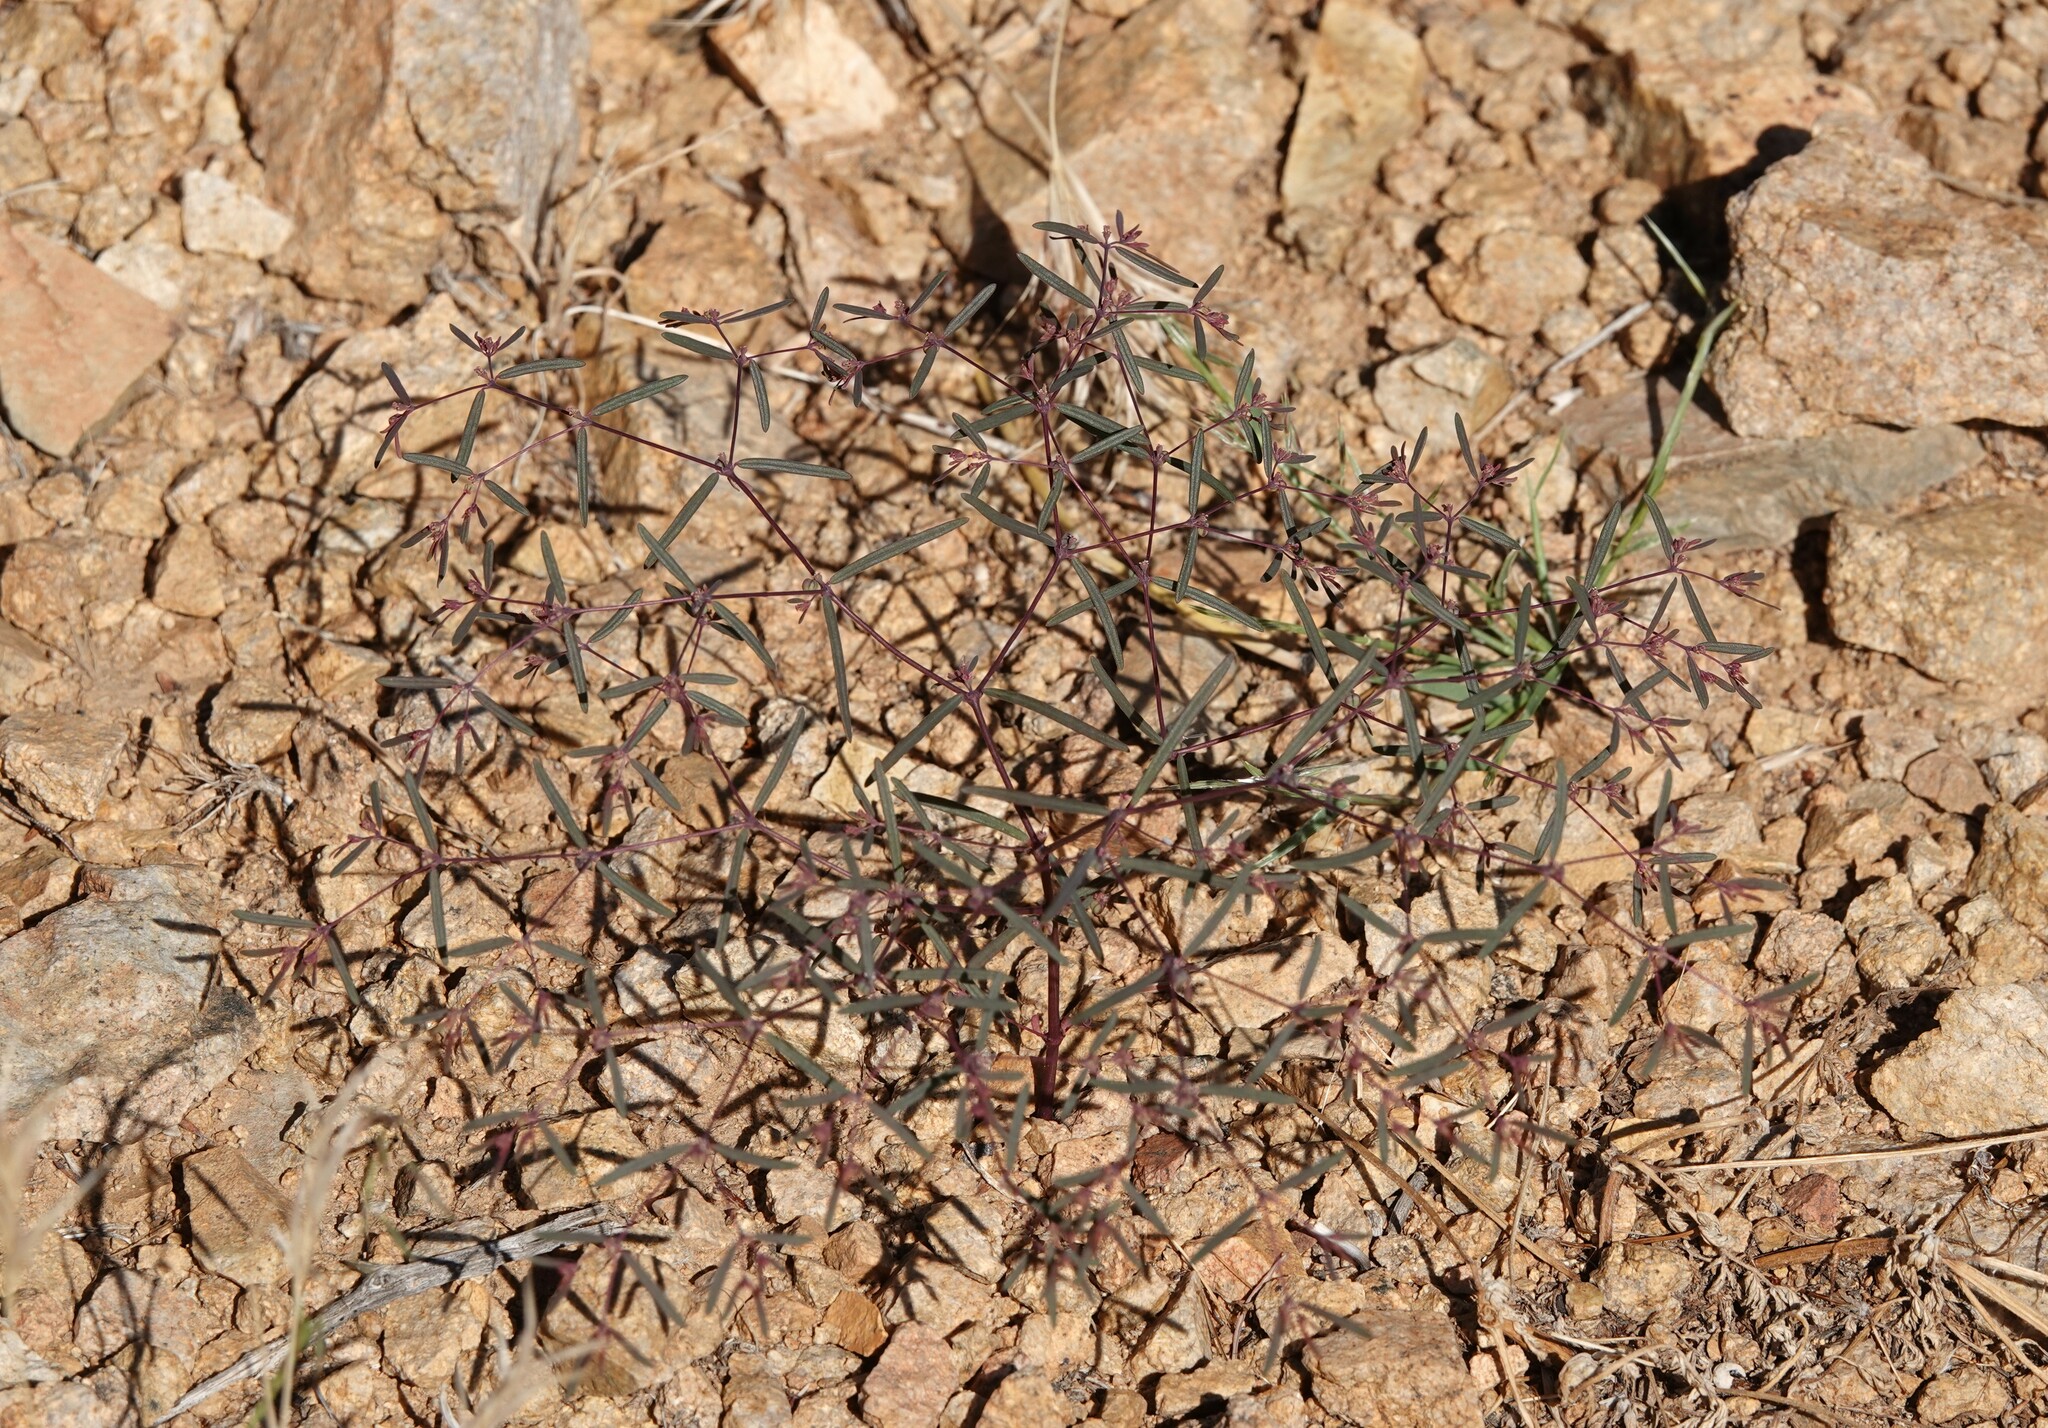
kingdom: Plantae
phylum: Tracheophyta
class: Magnoliopsida
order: Malpighiales
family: Euphorbiaceae
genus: Euphorbia
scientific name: Euphorbia revoluta
